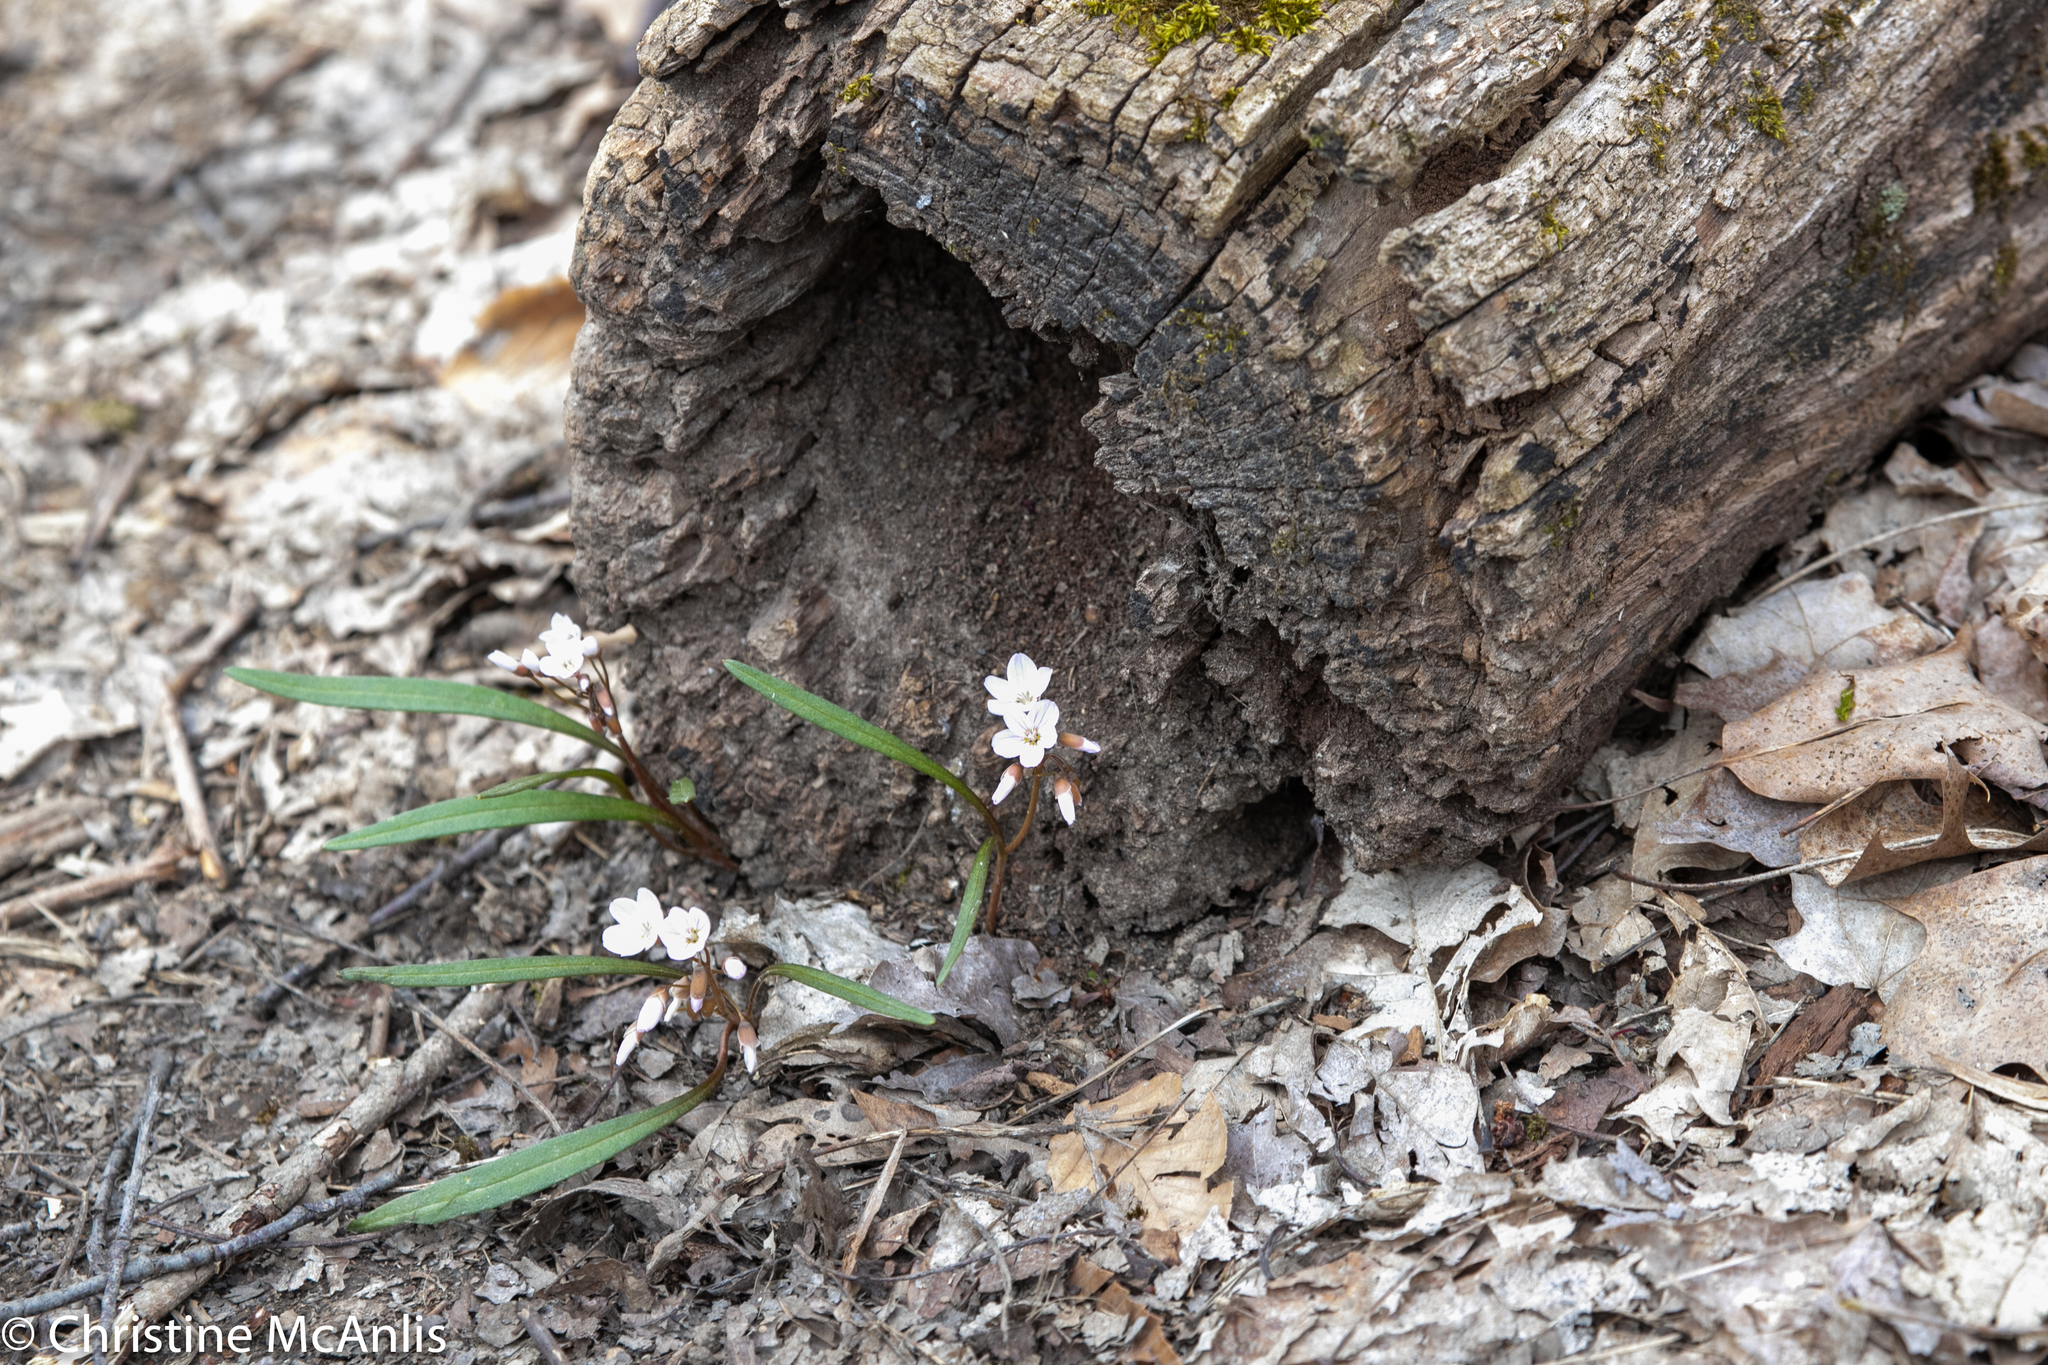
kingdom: Plantae
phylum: Tracheophyta
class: Magnoliopsida
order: Caryophyllales
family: Montiaceae
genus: Claytonia
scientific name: Claytonia virginica
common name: Virginia springbeauty
